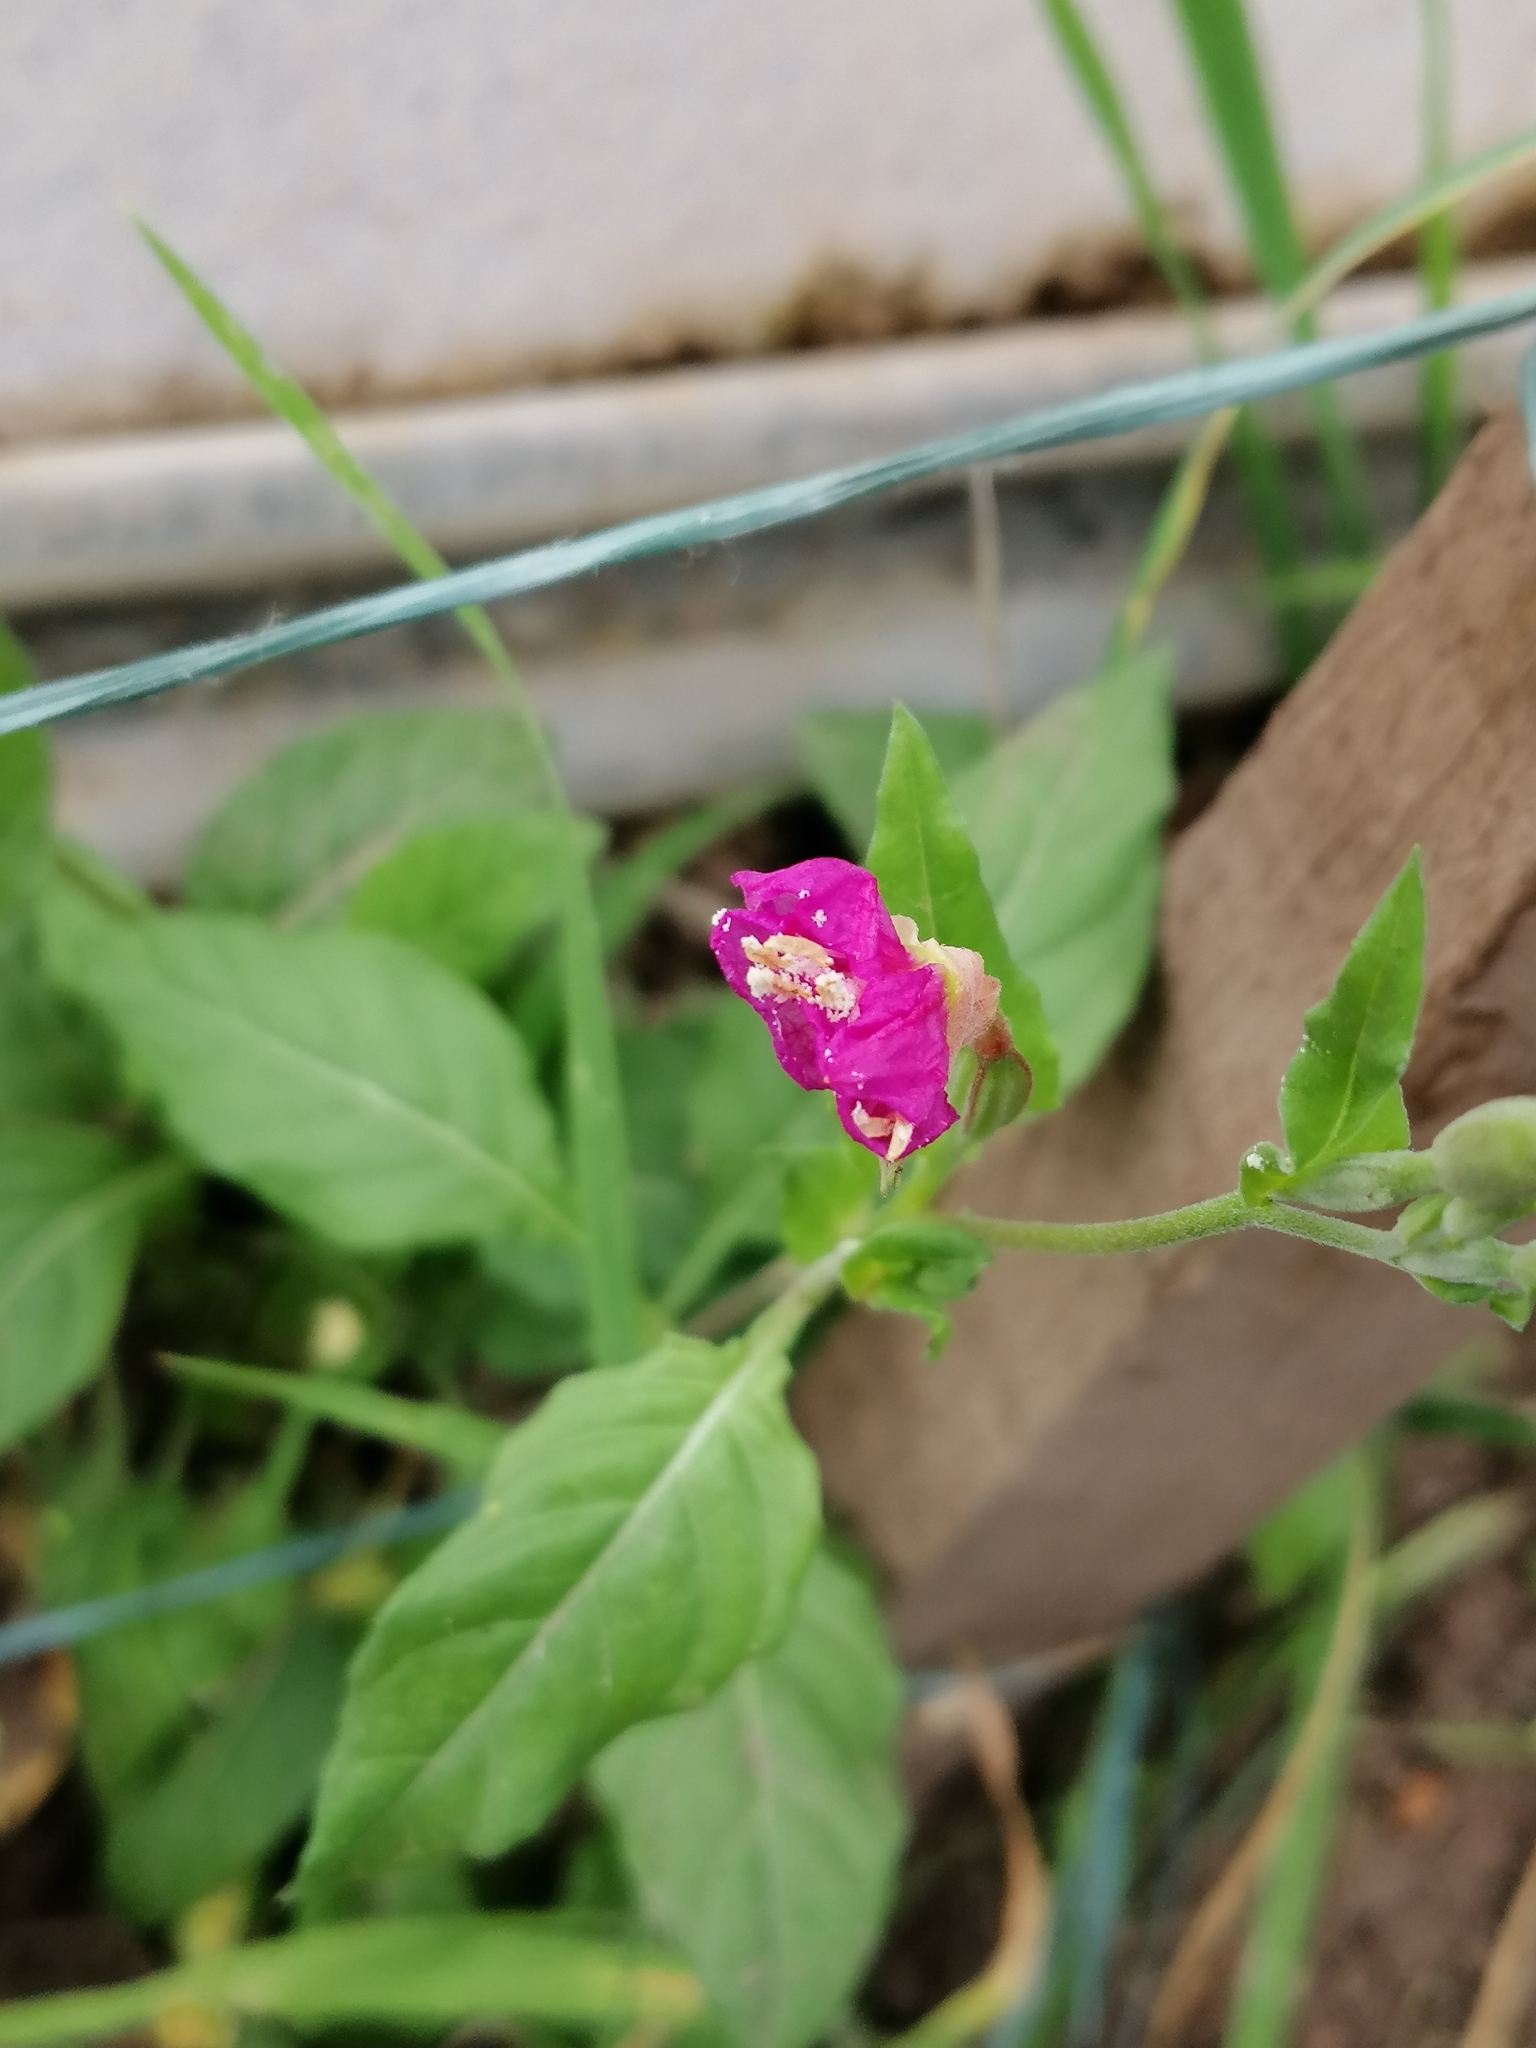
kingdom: Plantae
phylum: Tracheophyta
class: Magnoliopsida
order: Myrtales
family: Onagraceae
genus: Oenothera
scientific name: Oenothera rosea
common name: Rosy evening-primrose
